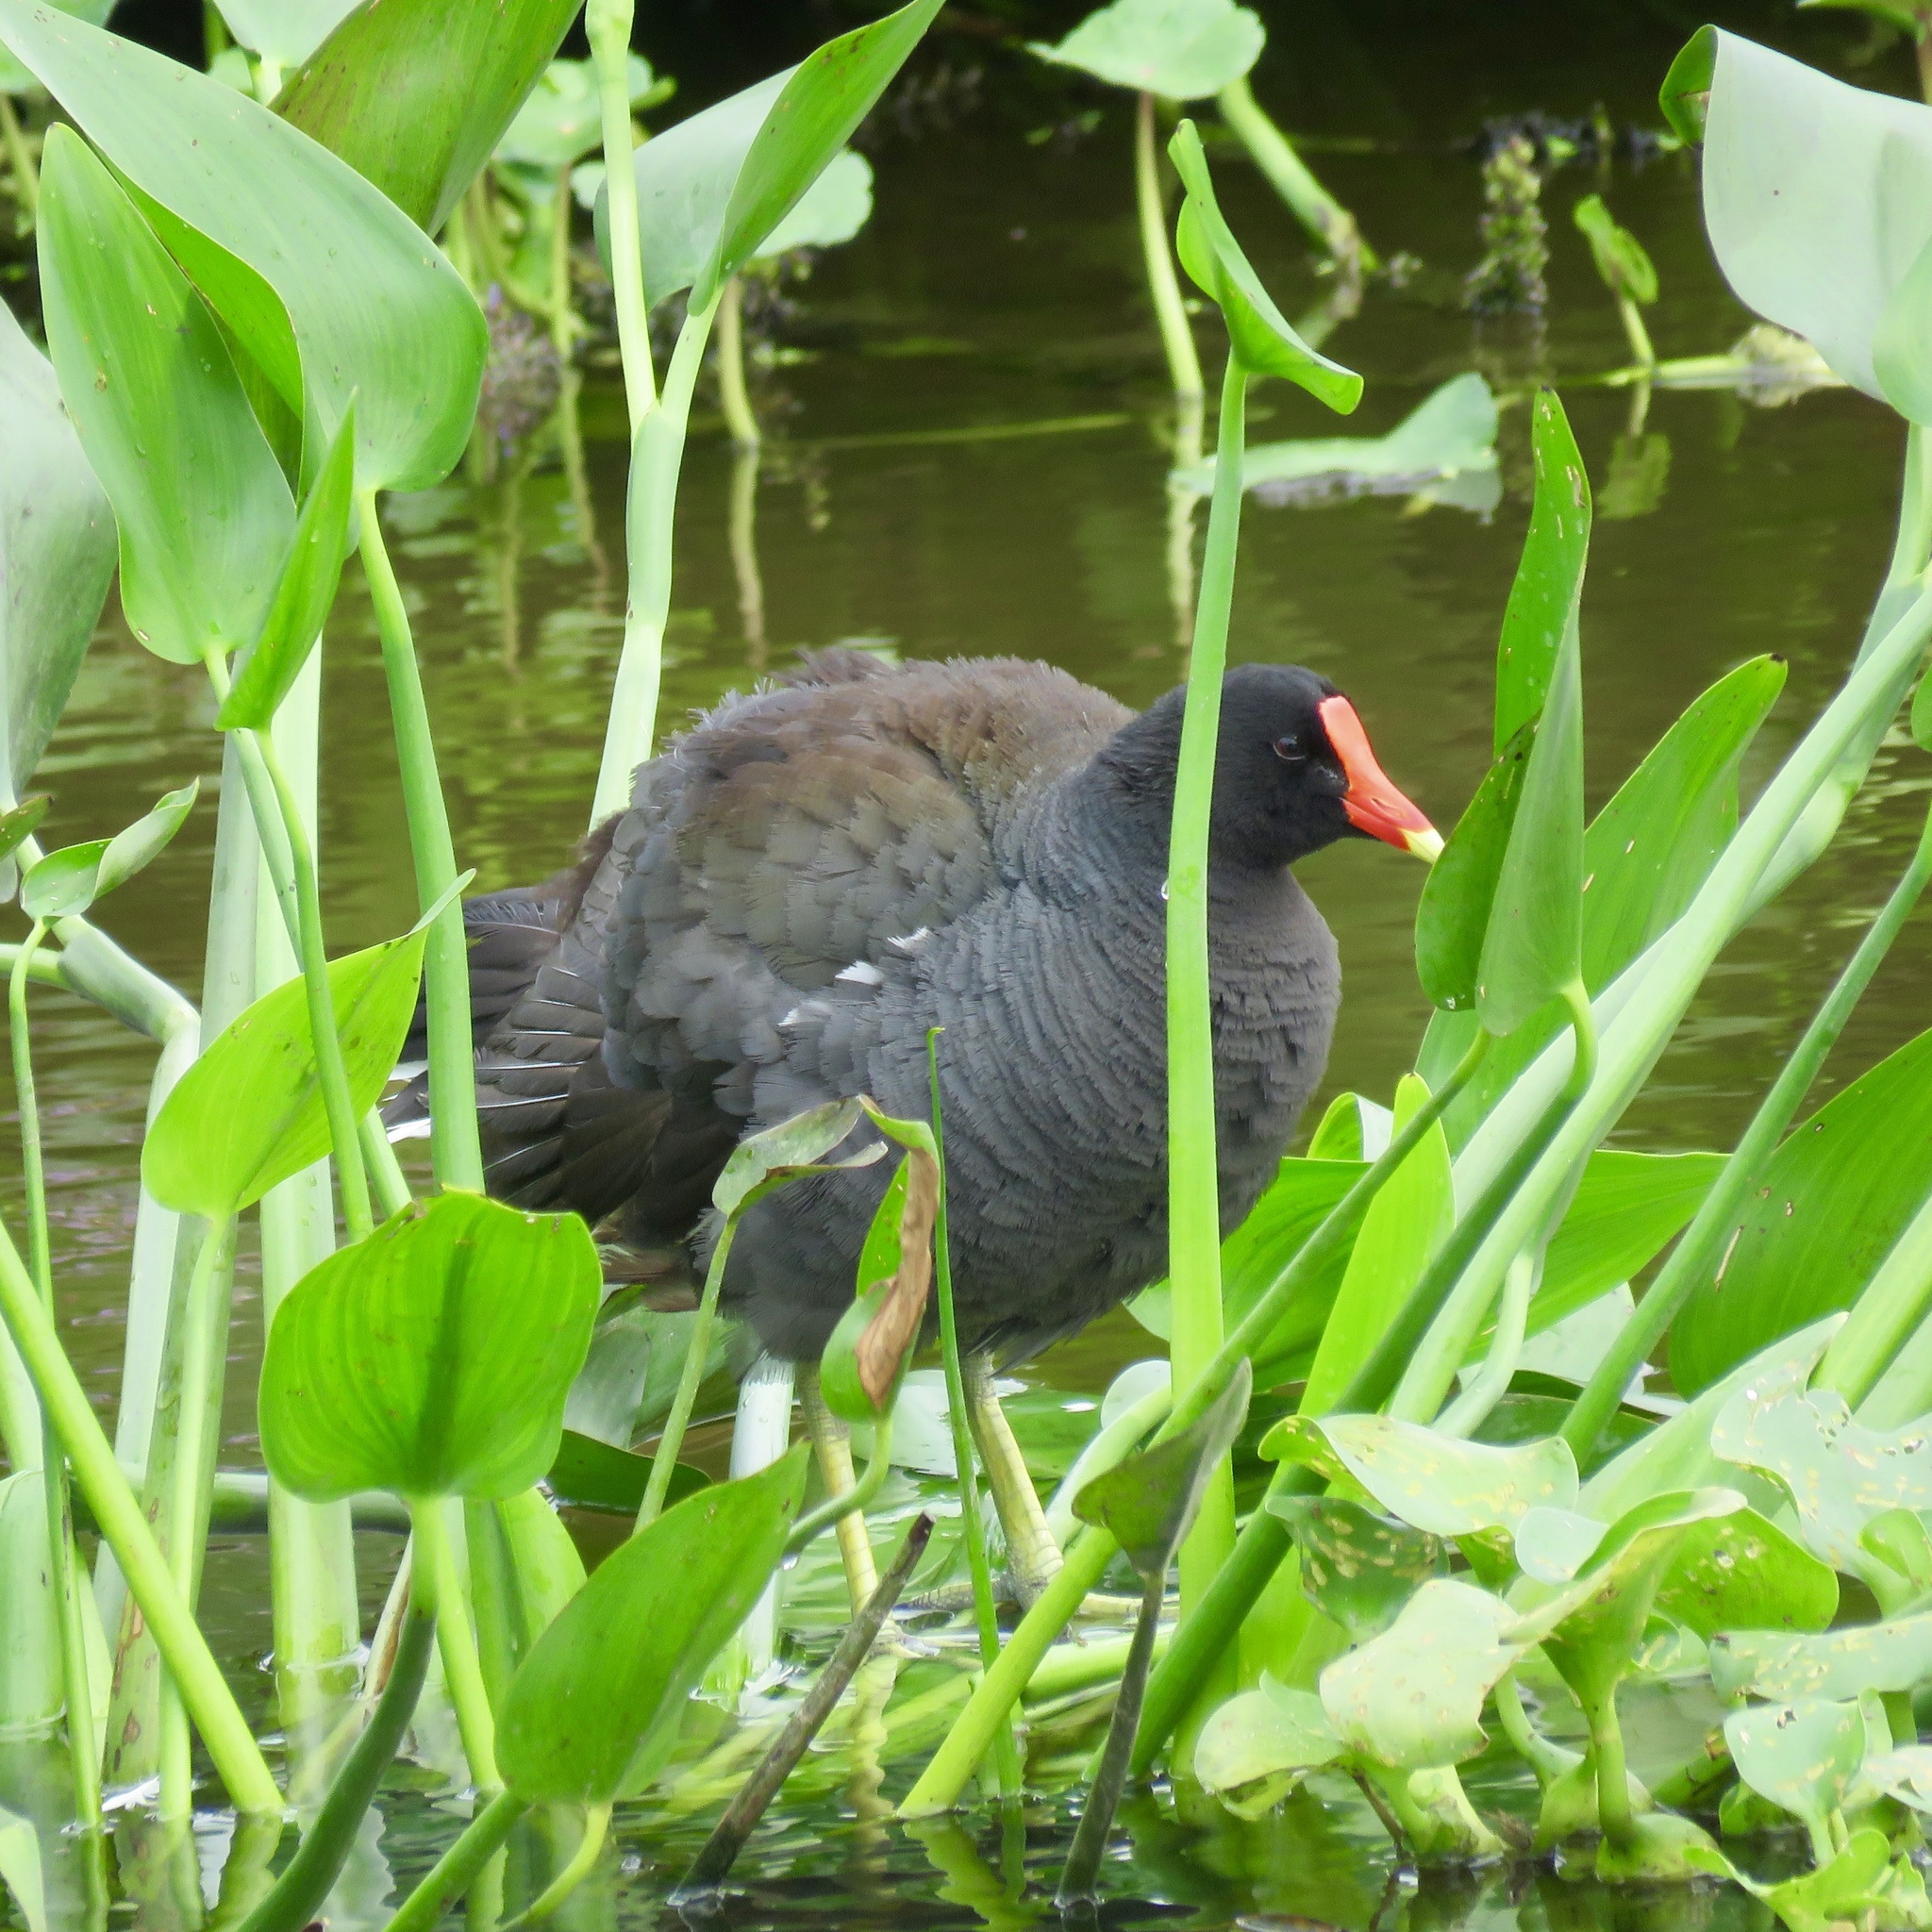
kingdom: Animalia
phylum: Chordata
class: Aves
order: Gruiformes
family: Rallidae
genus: Gallinula
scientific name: Gallinula chloropus
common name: Common moorhen
